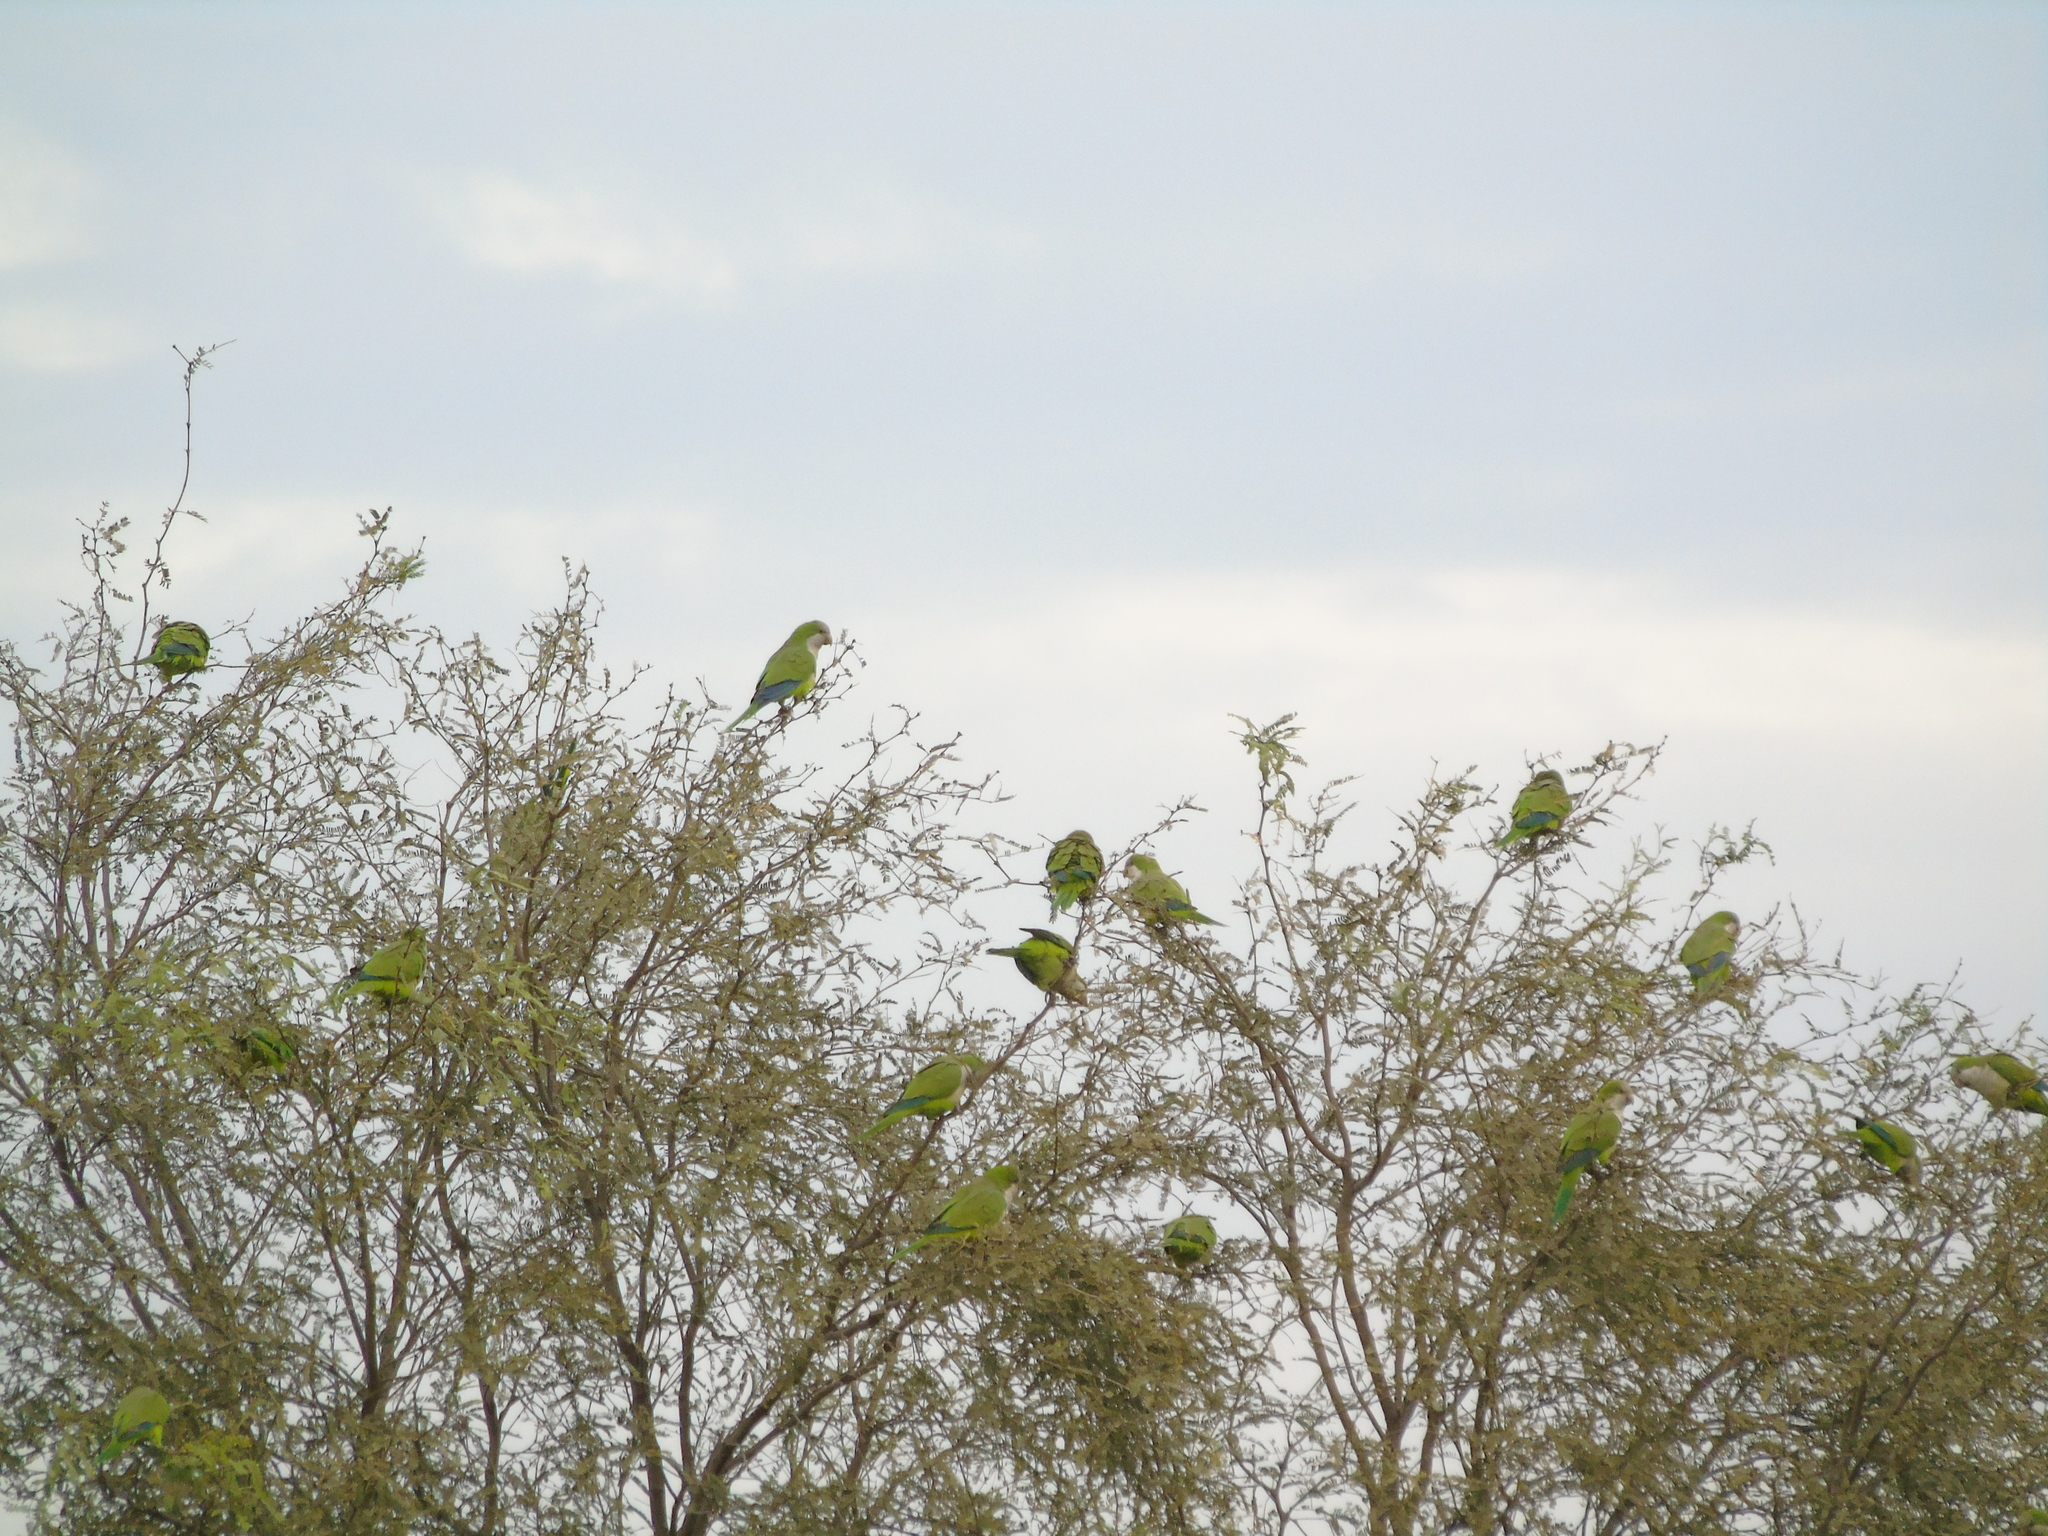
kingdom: Animalia
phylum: Chordata
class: Aves
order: Psittaciformes
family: Psittacidae
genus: Myiopsitta
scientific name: Myiopsitta monachus
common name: Monk parakeet
